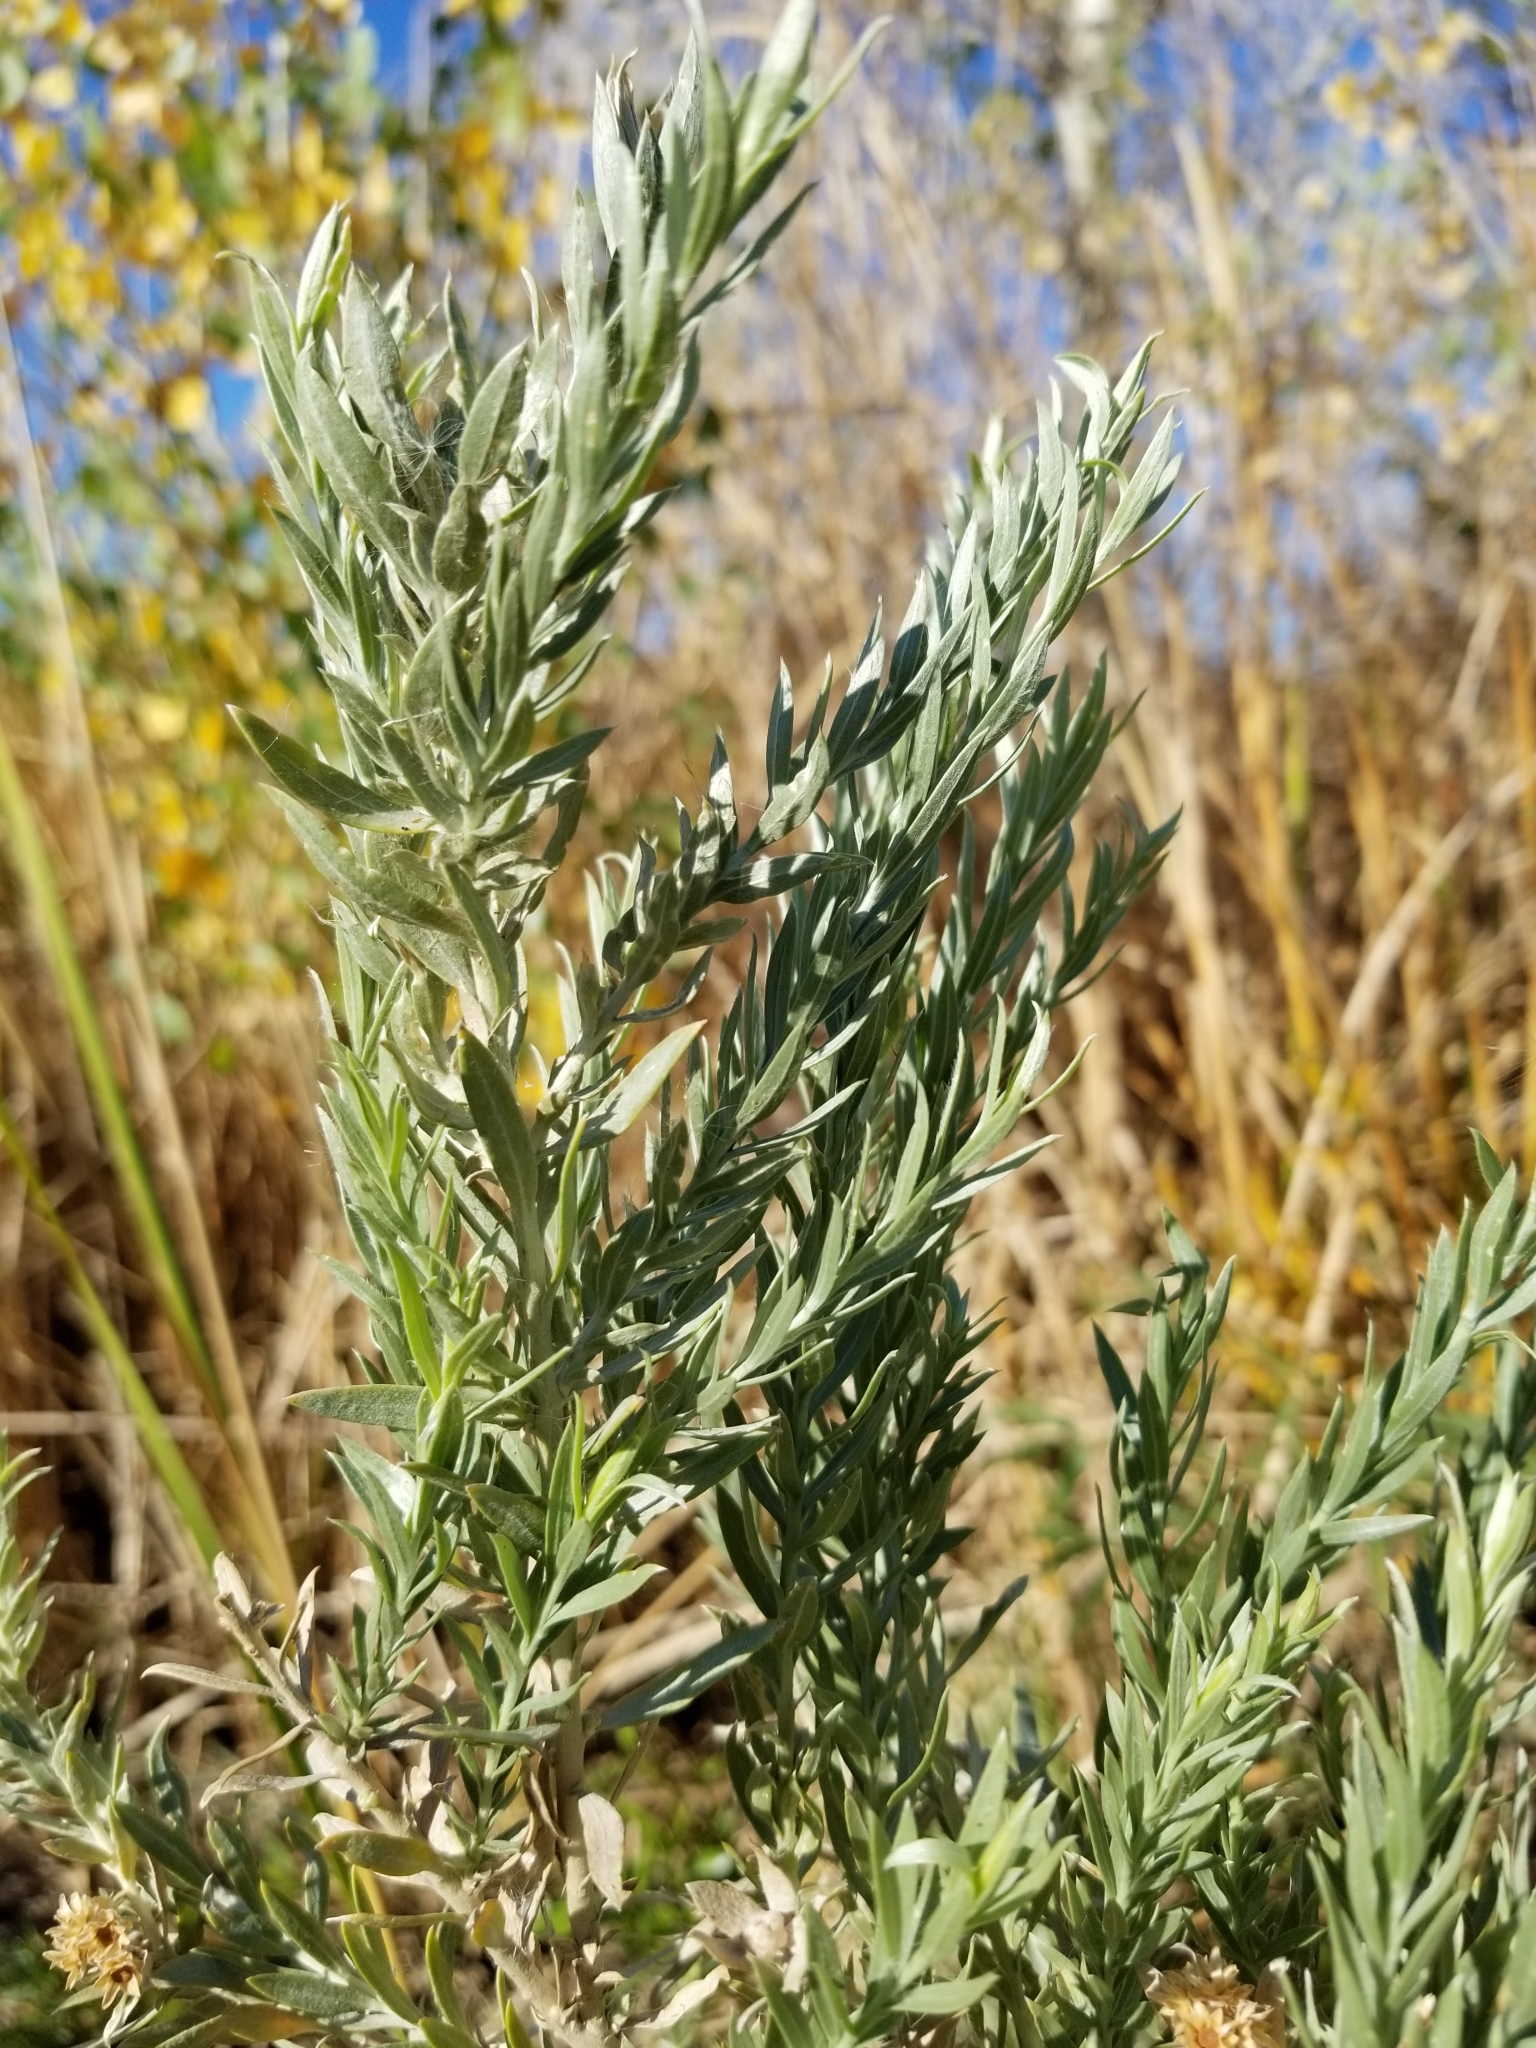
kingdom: Plantae
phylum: Tracheophyta
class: Magnoliopsida
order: Asterales
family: Asteraceae
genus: Pluchea
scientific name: Pluchea sericea
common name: Arrow-weed
